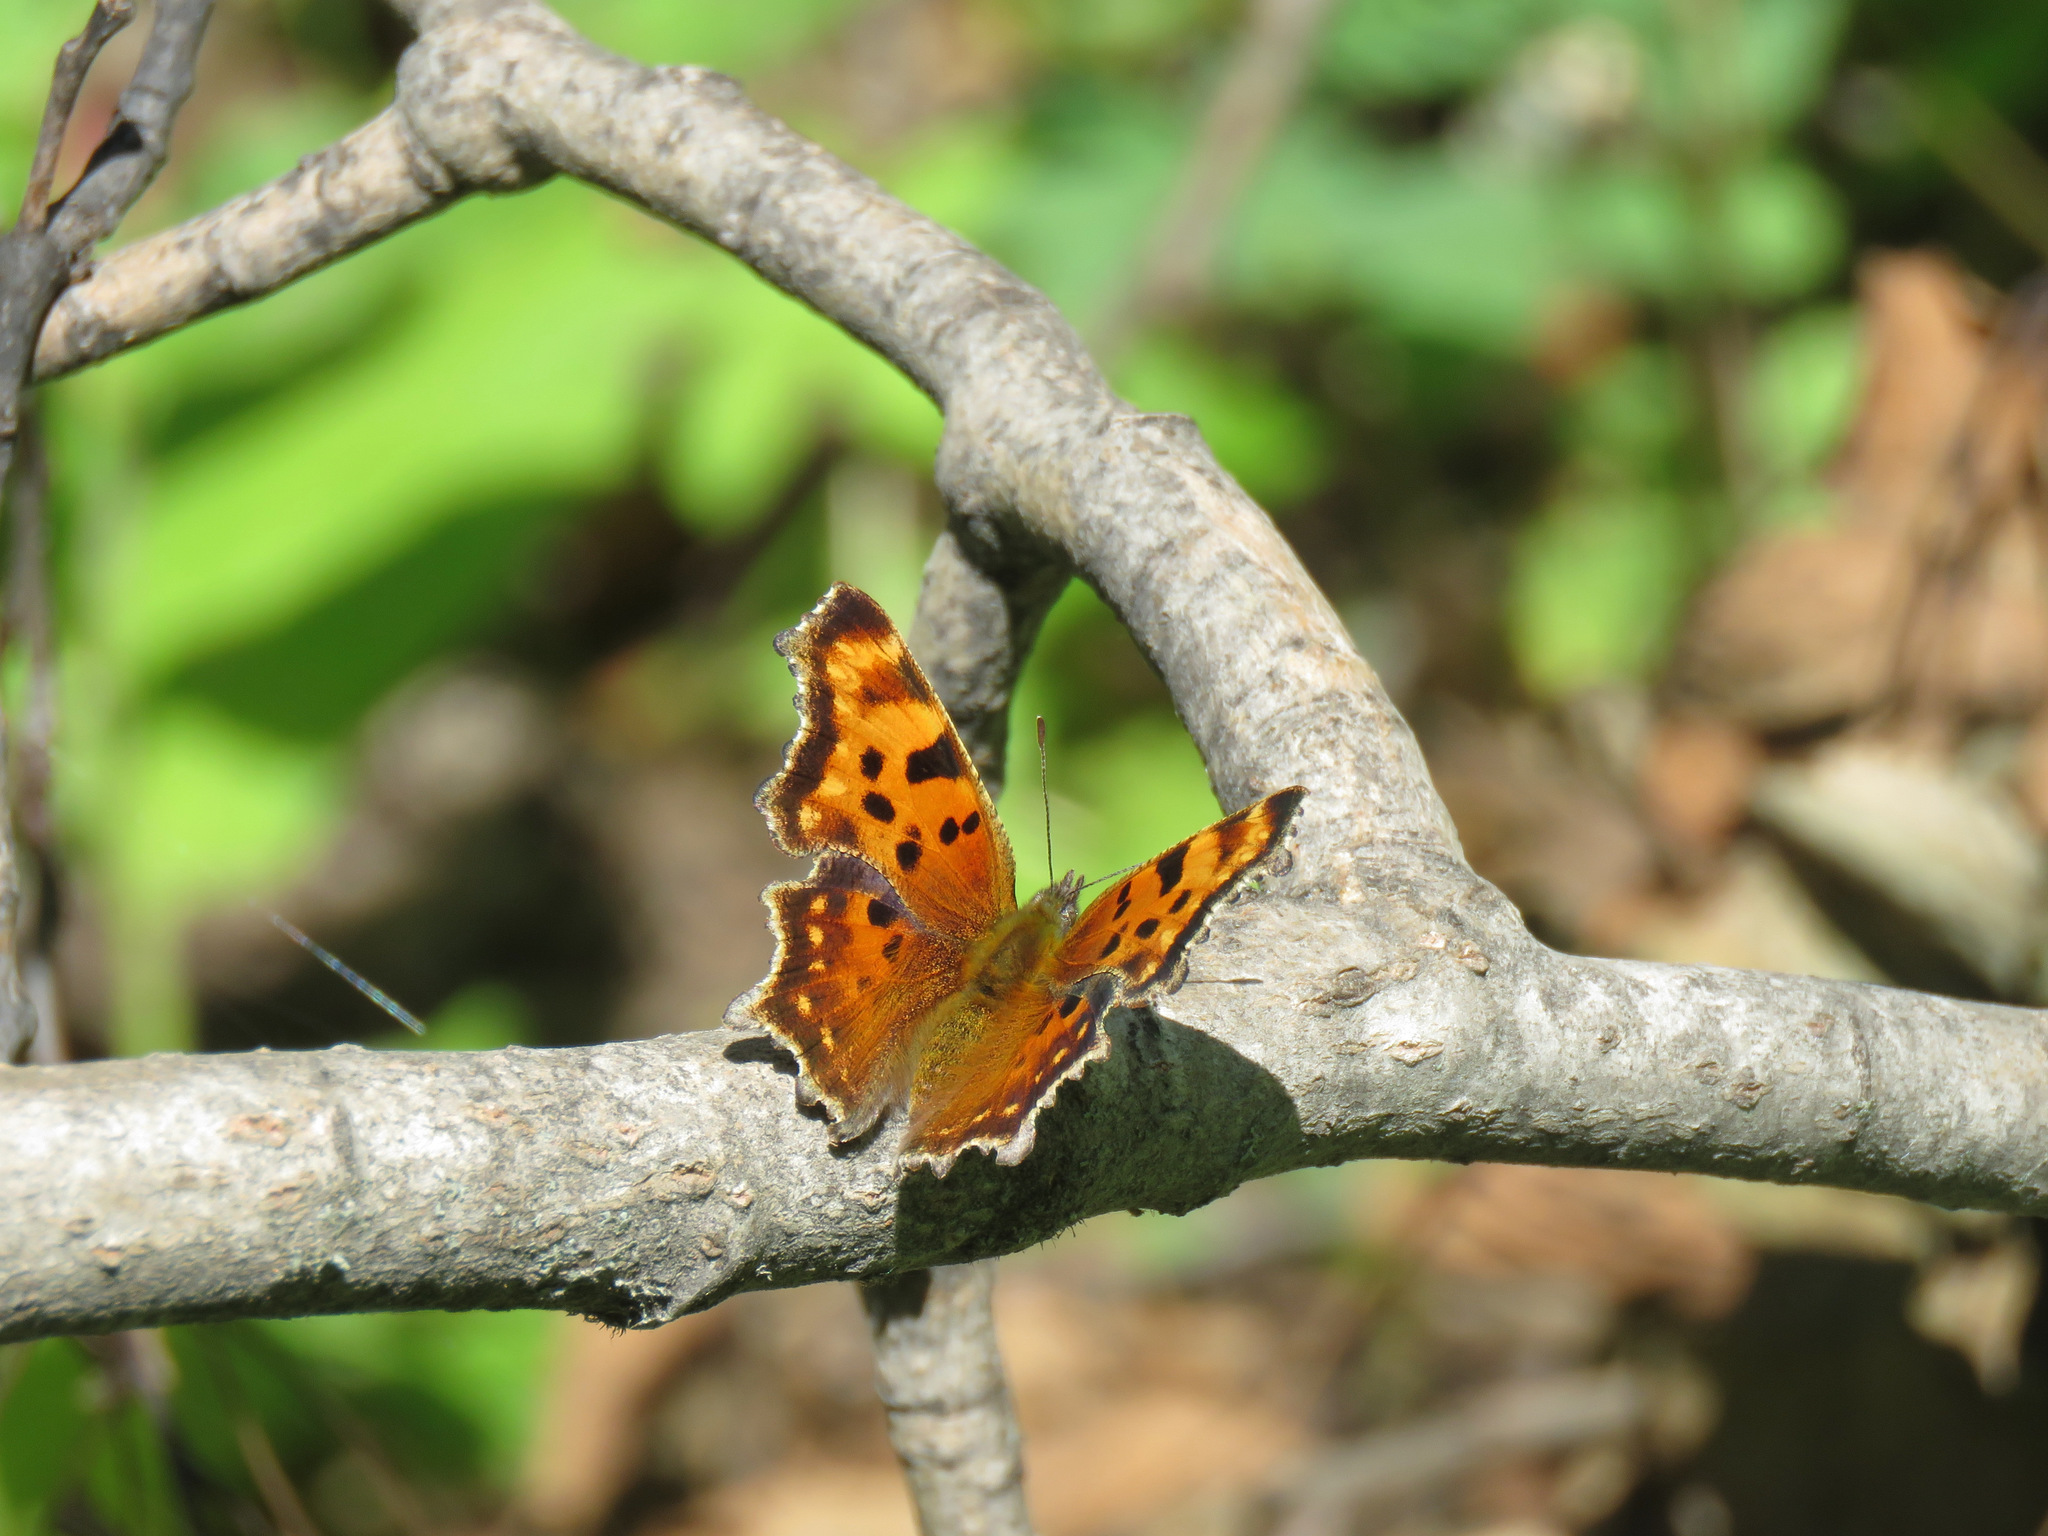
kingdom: Animalia
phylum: Arthropoda
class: Insecta
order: Lepidoptera
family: Nymphalidae
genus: Polygonia
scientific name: Polygonia faunus
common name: Green comma
